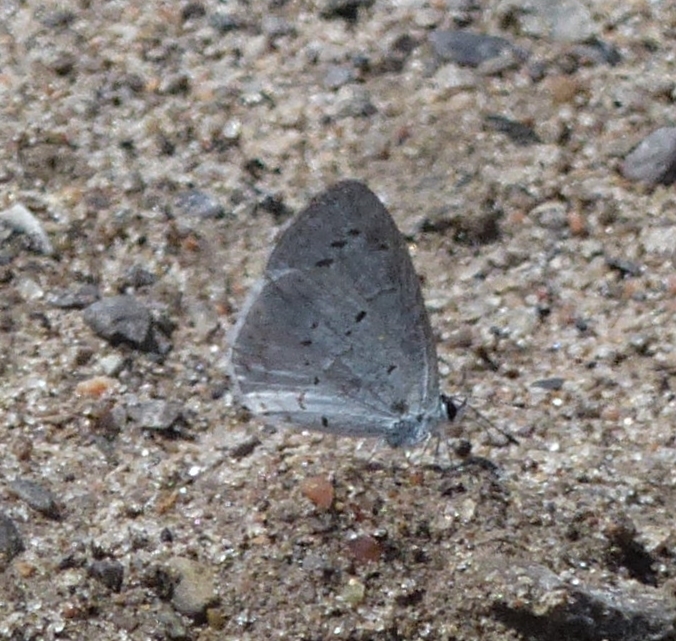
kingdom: Animalia
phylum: Arthropoda
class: Insecta
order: Lepidoptera
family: Lycaenidae
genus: Cyaniris
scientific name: Cyaniris neglecta
